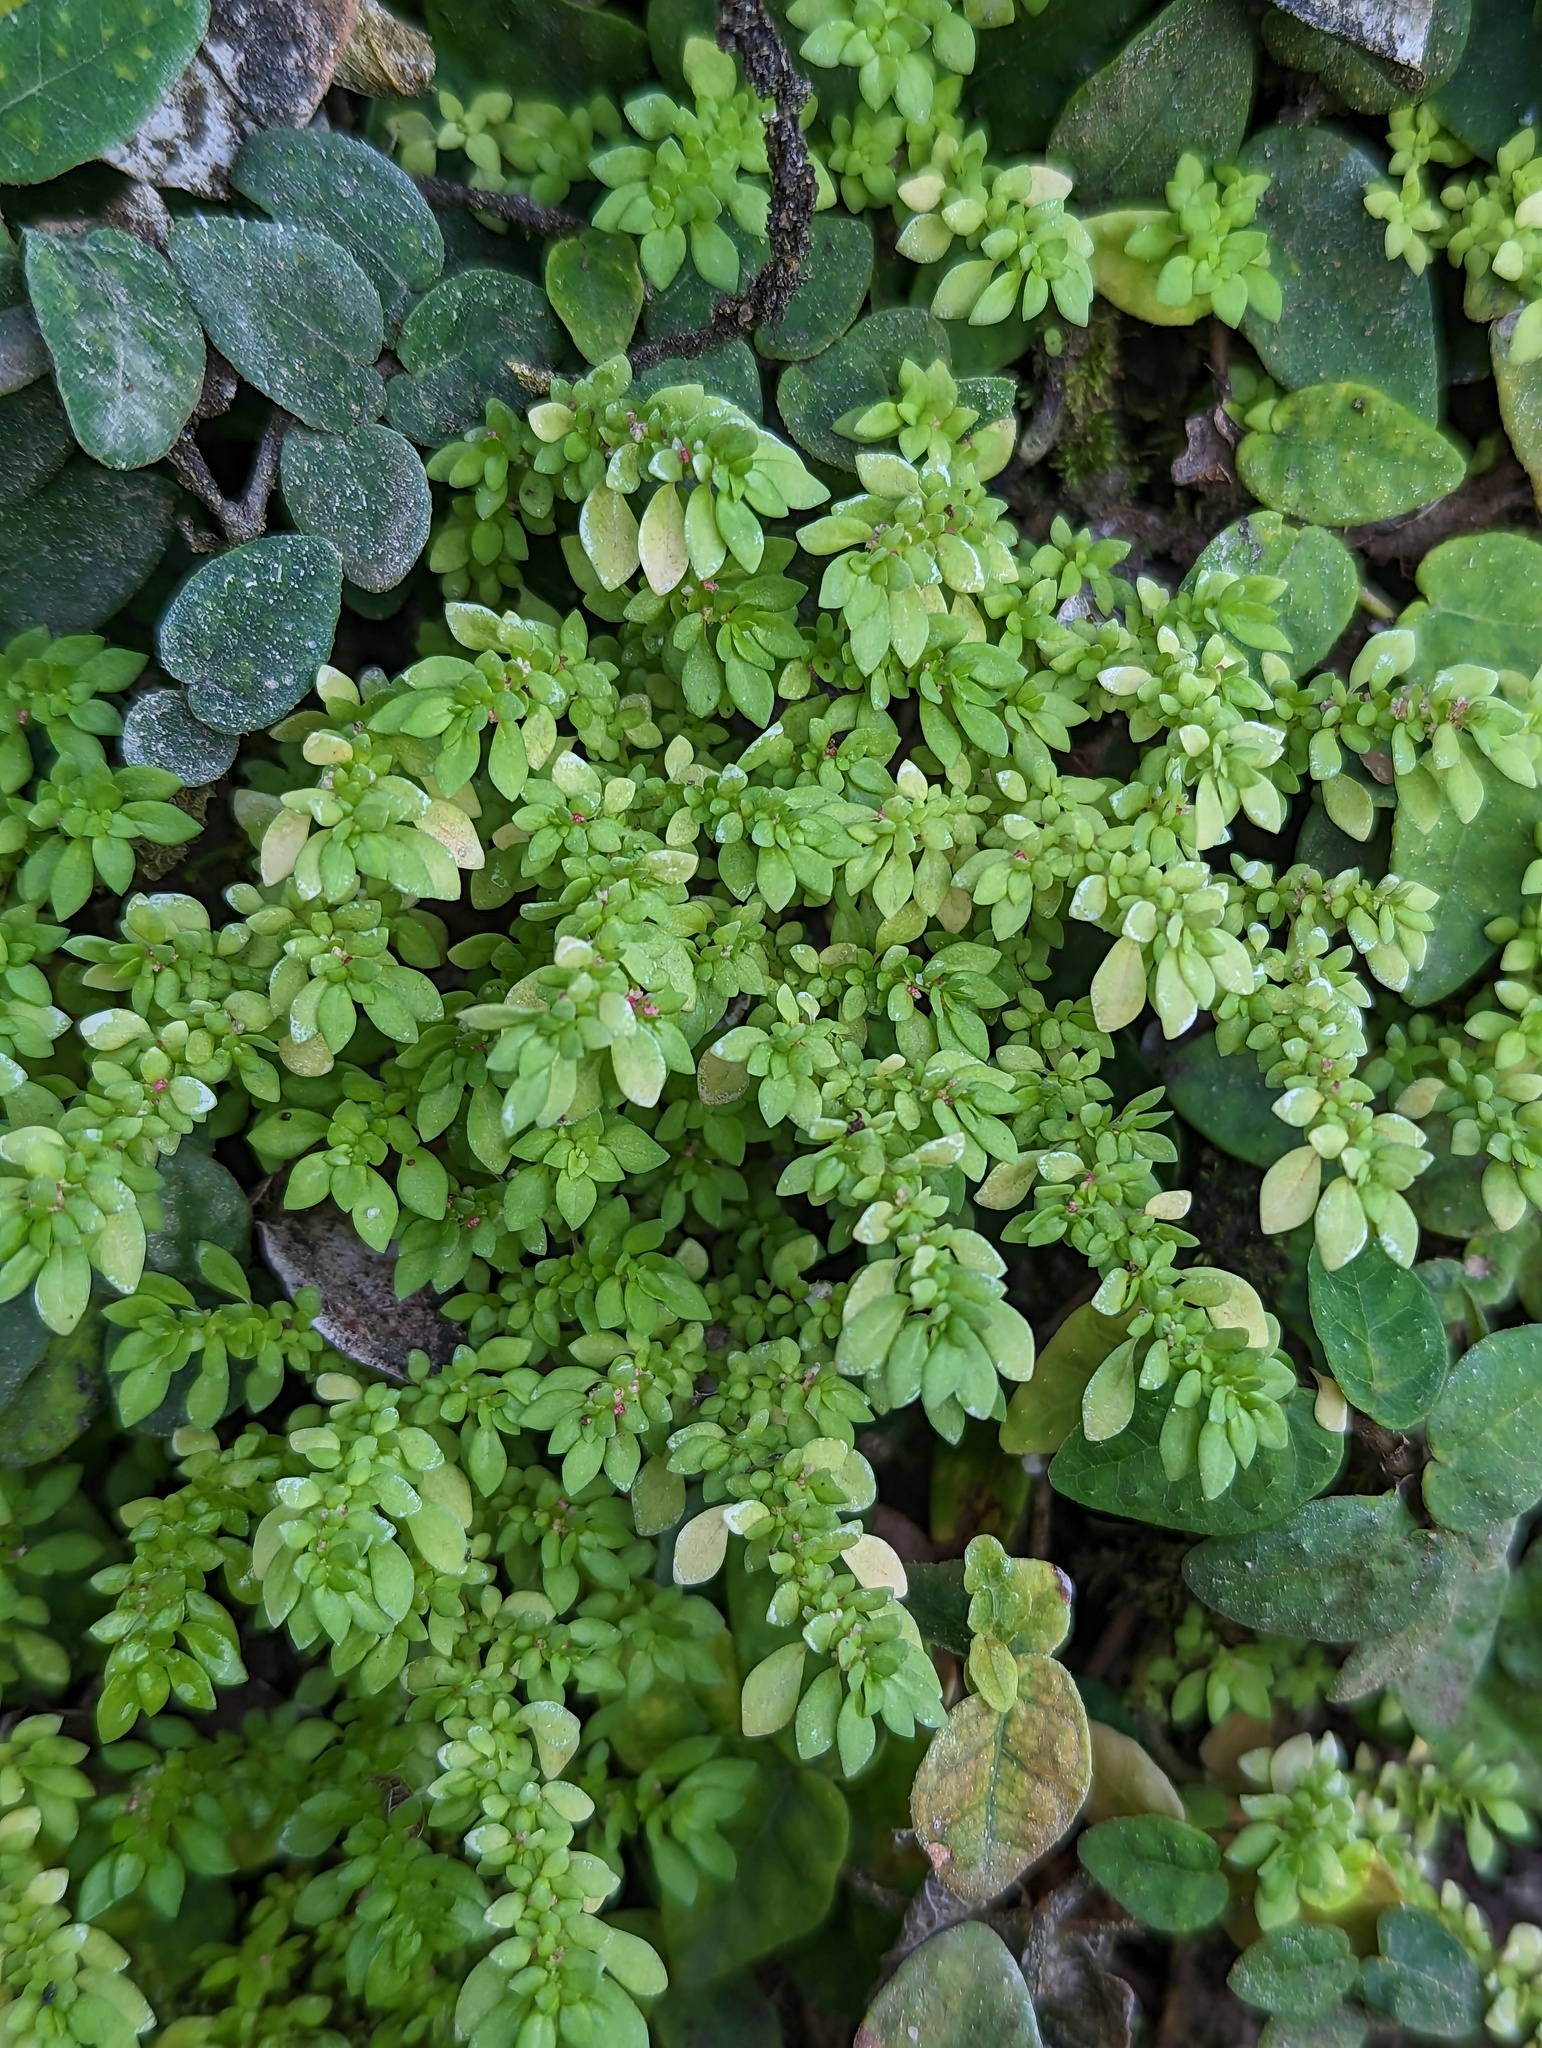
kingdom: Plantae
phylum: Tracheophyta
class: Magnoliopsida
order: Rosales
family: Urticaceae
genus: Pilea
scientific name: Pilea microphylla
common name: Artillery-plant
